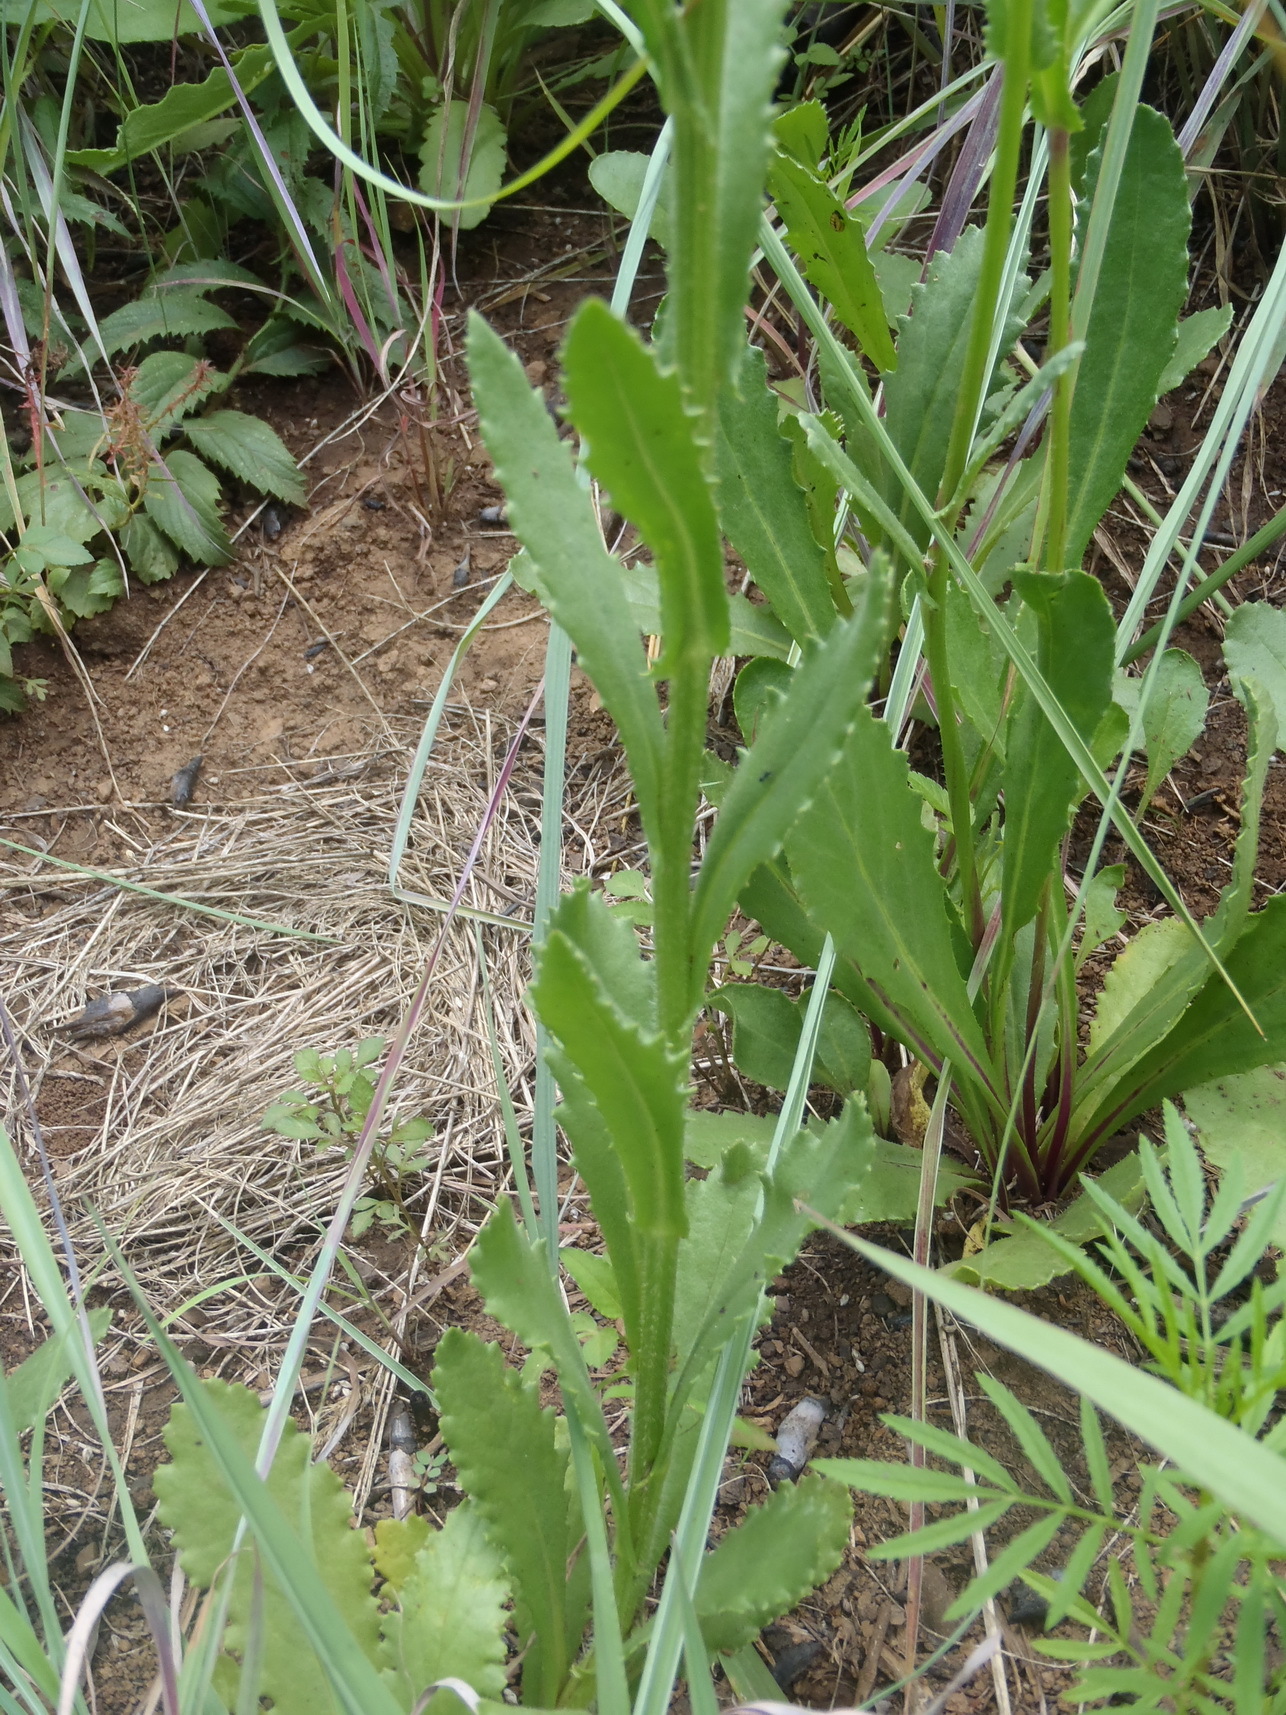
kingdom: Plantae
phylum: Tracheophyta
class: Magnoliopsida
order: Asterales
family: Asteraceae
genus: Senecio
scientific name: Senecio erubescens
